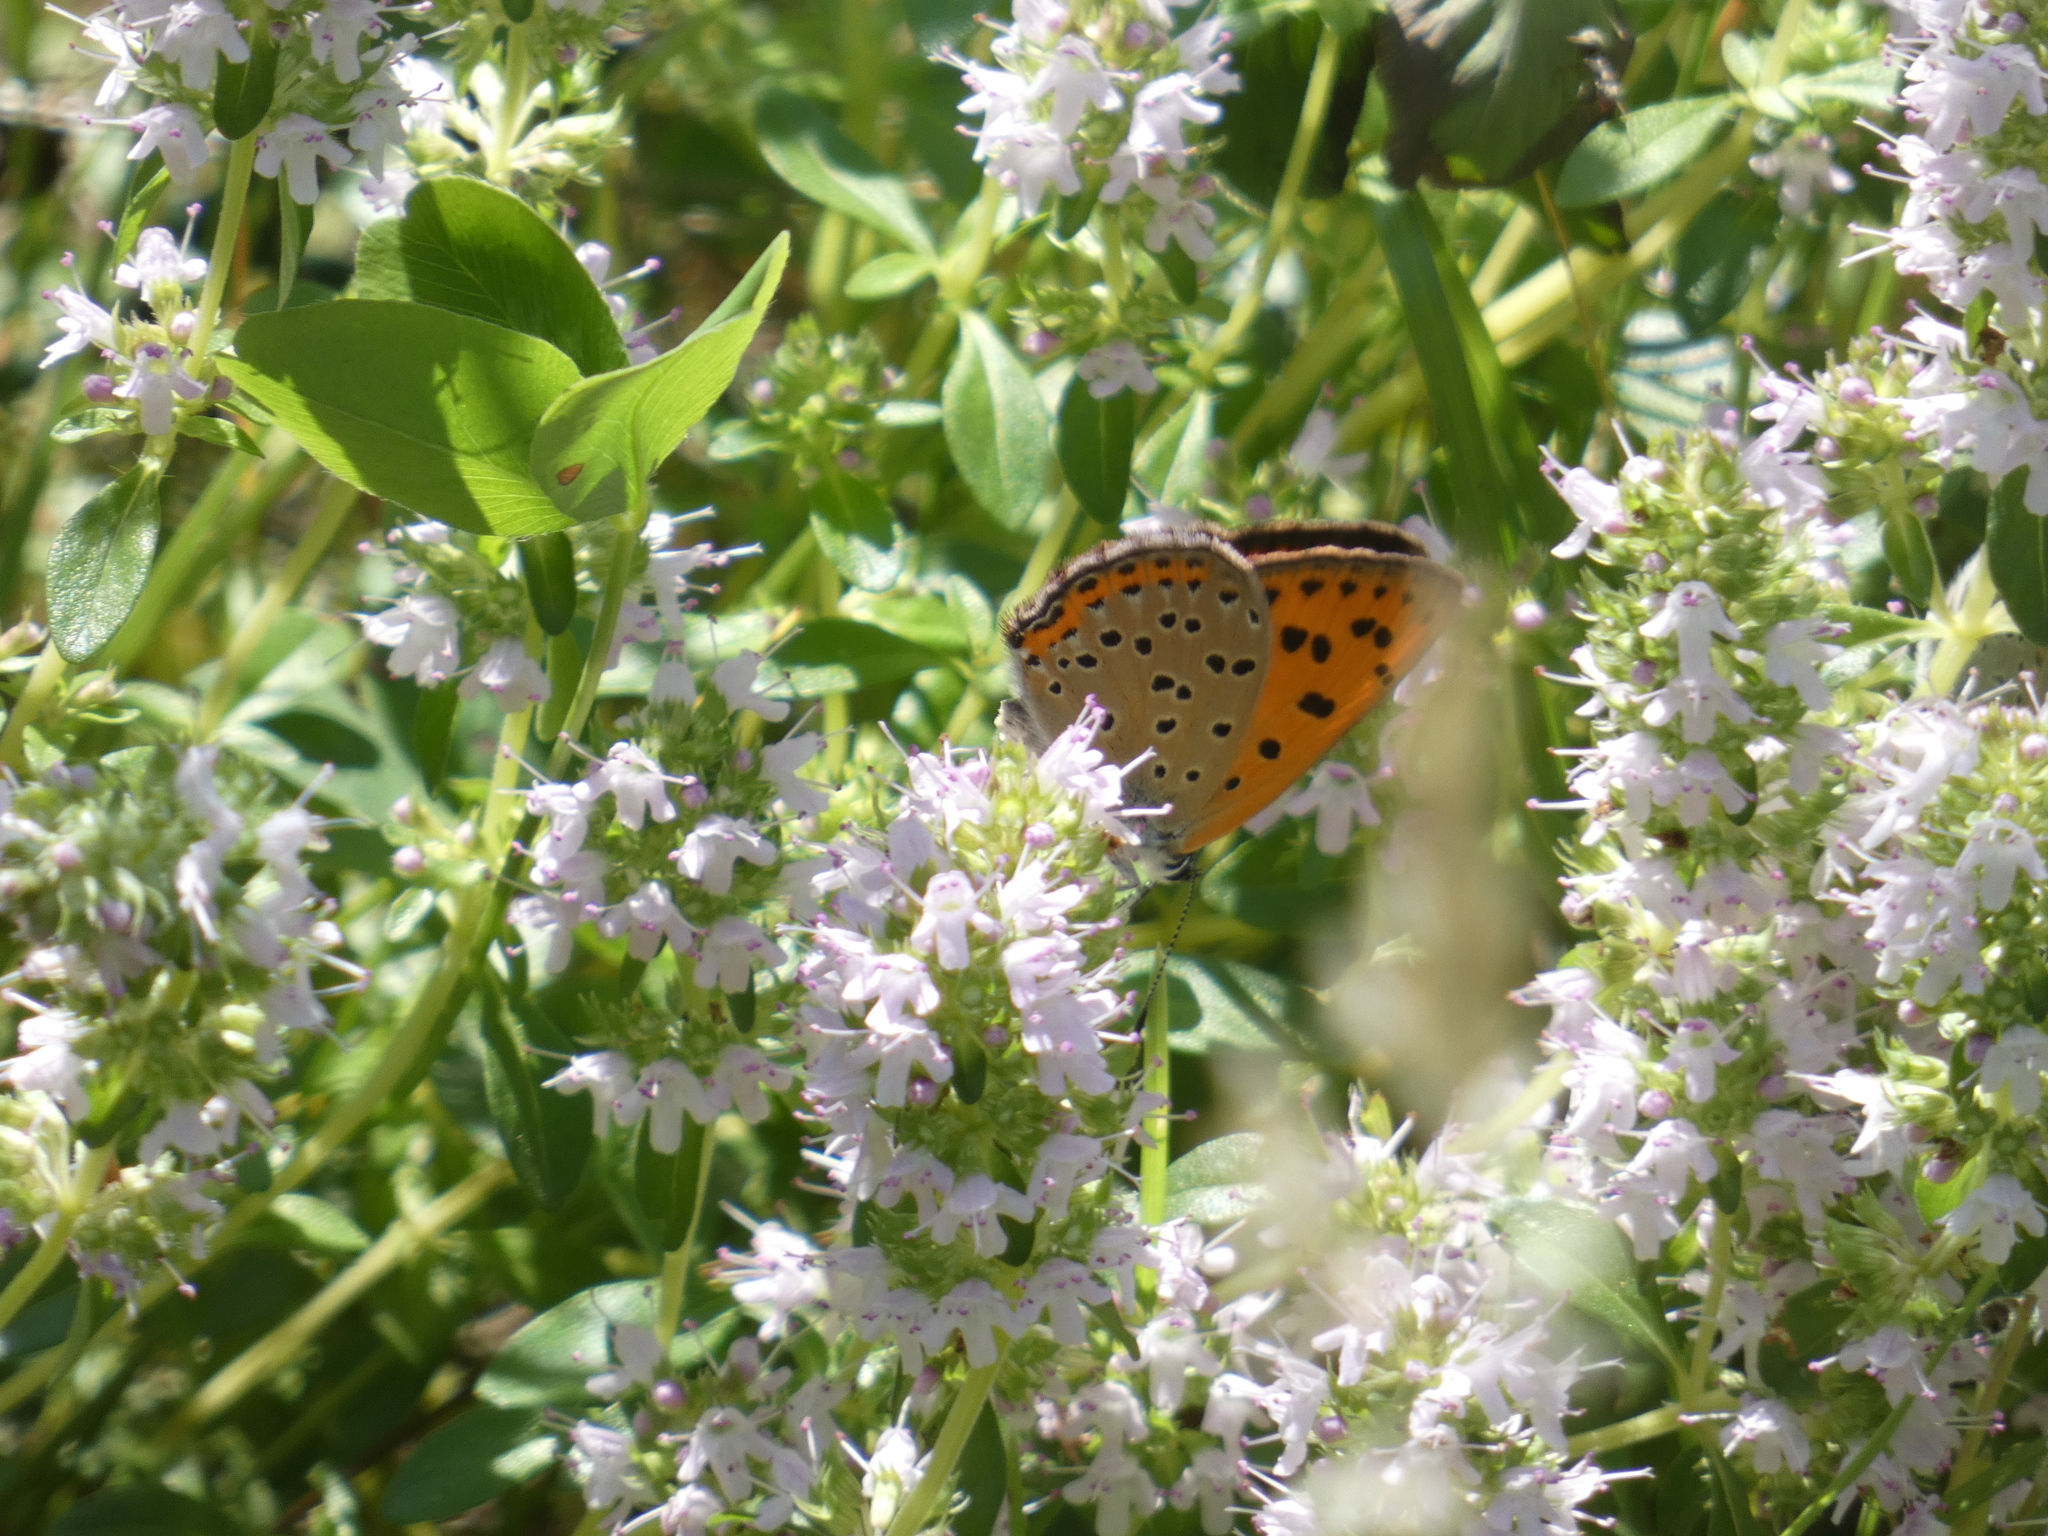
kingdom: Animalia
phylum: Arthropoda
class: Insecta
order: Lepidoptera
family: Lycaenidae
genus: Lycaena
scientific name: Lycaena alciphron
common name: Purple-shot copper
